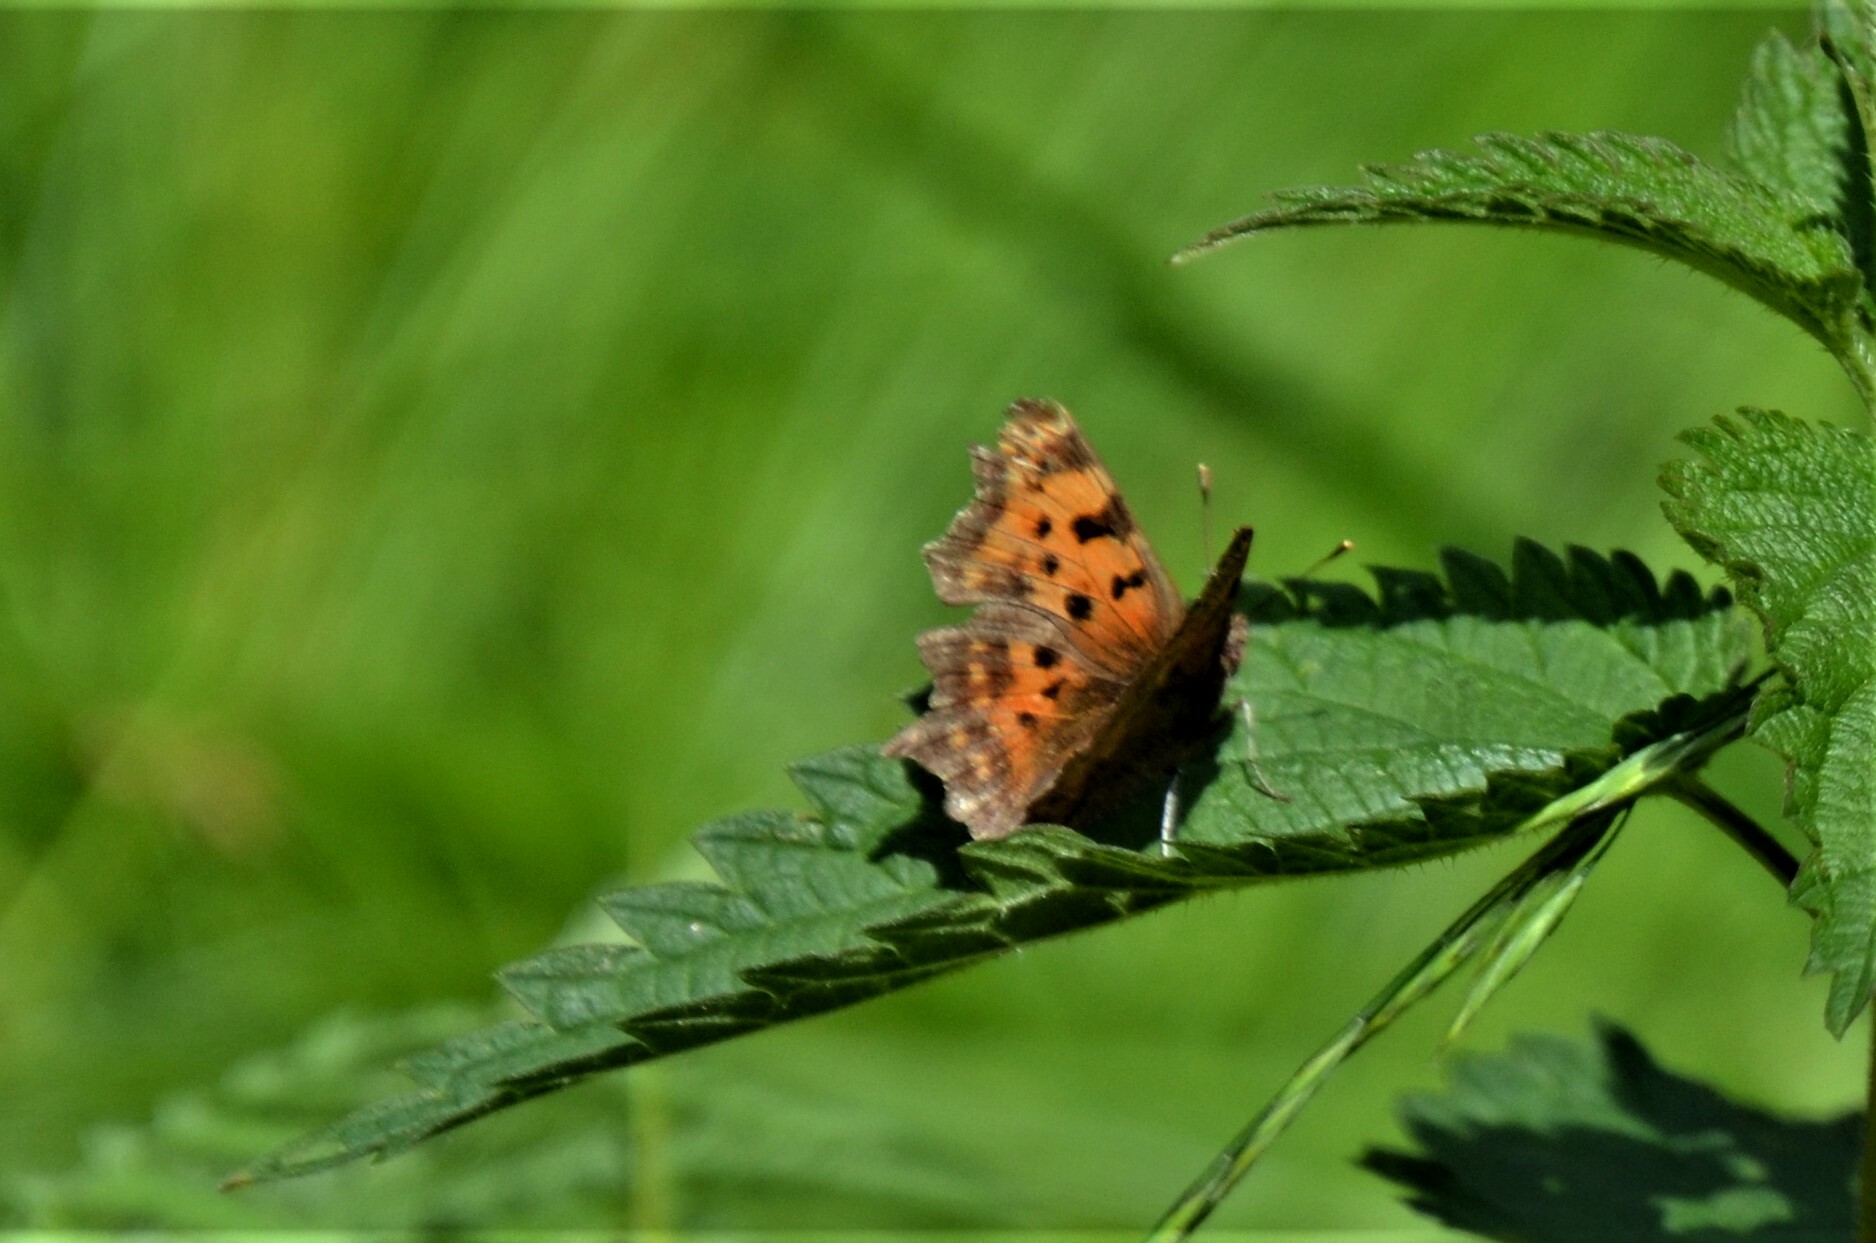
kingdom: Animalia
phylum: Arthropoda
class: Insecta
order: Lepidoptera
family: Nymphalidae
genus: Polygonia
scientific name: Polygonia c-album
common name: Comma
